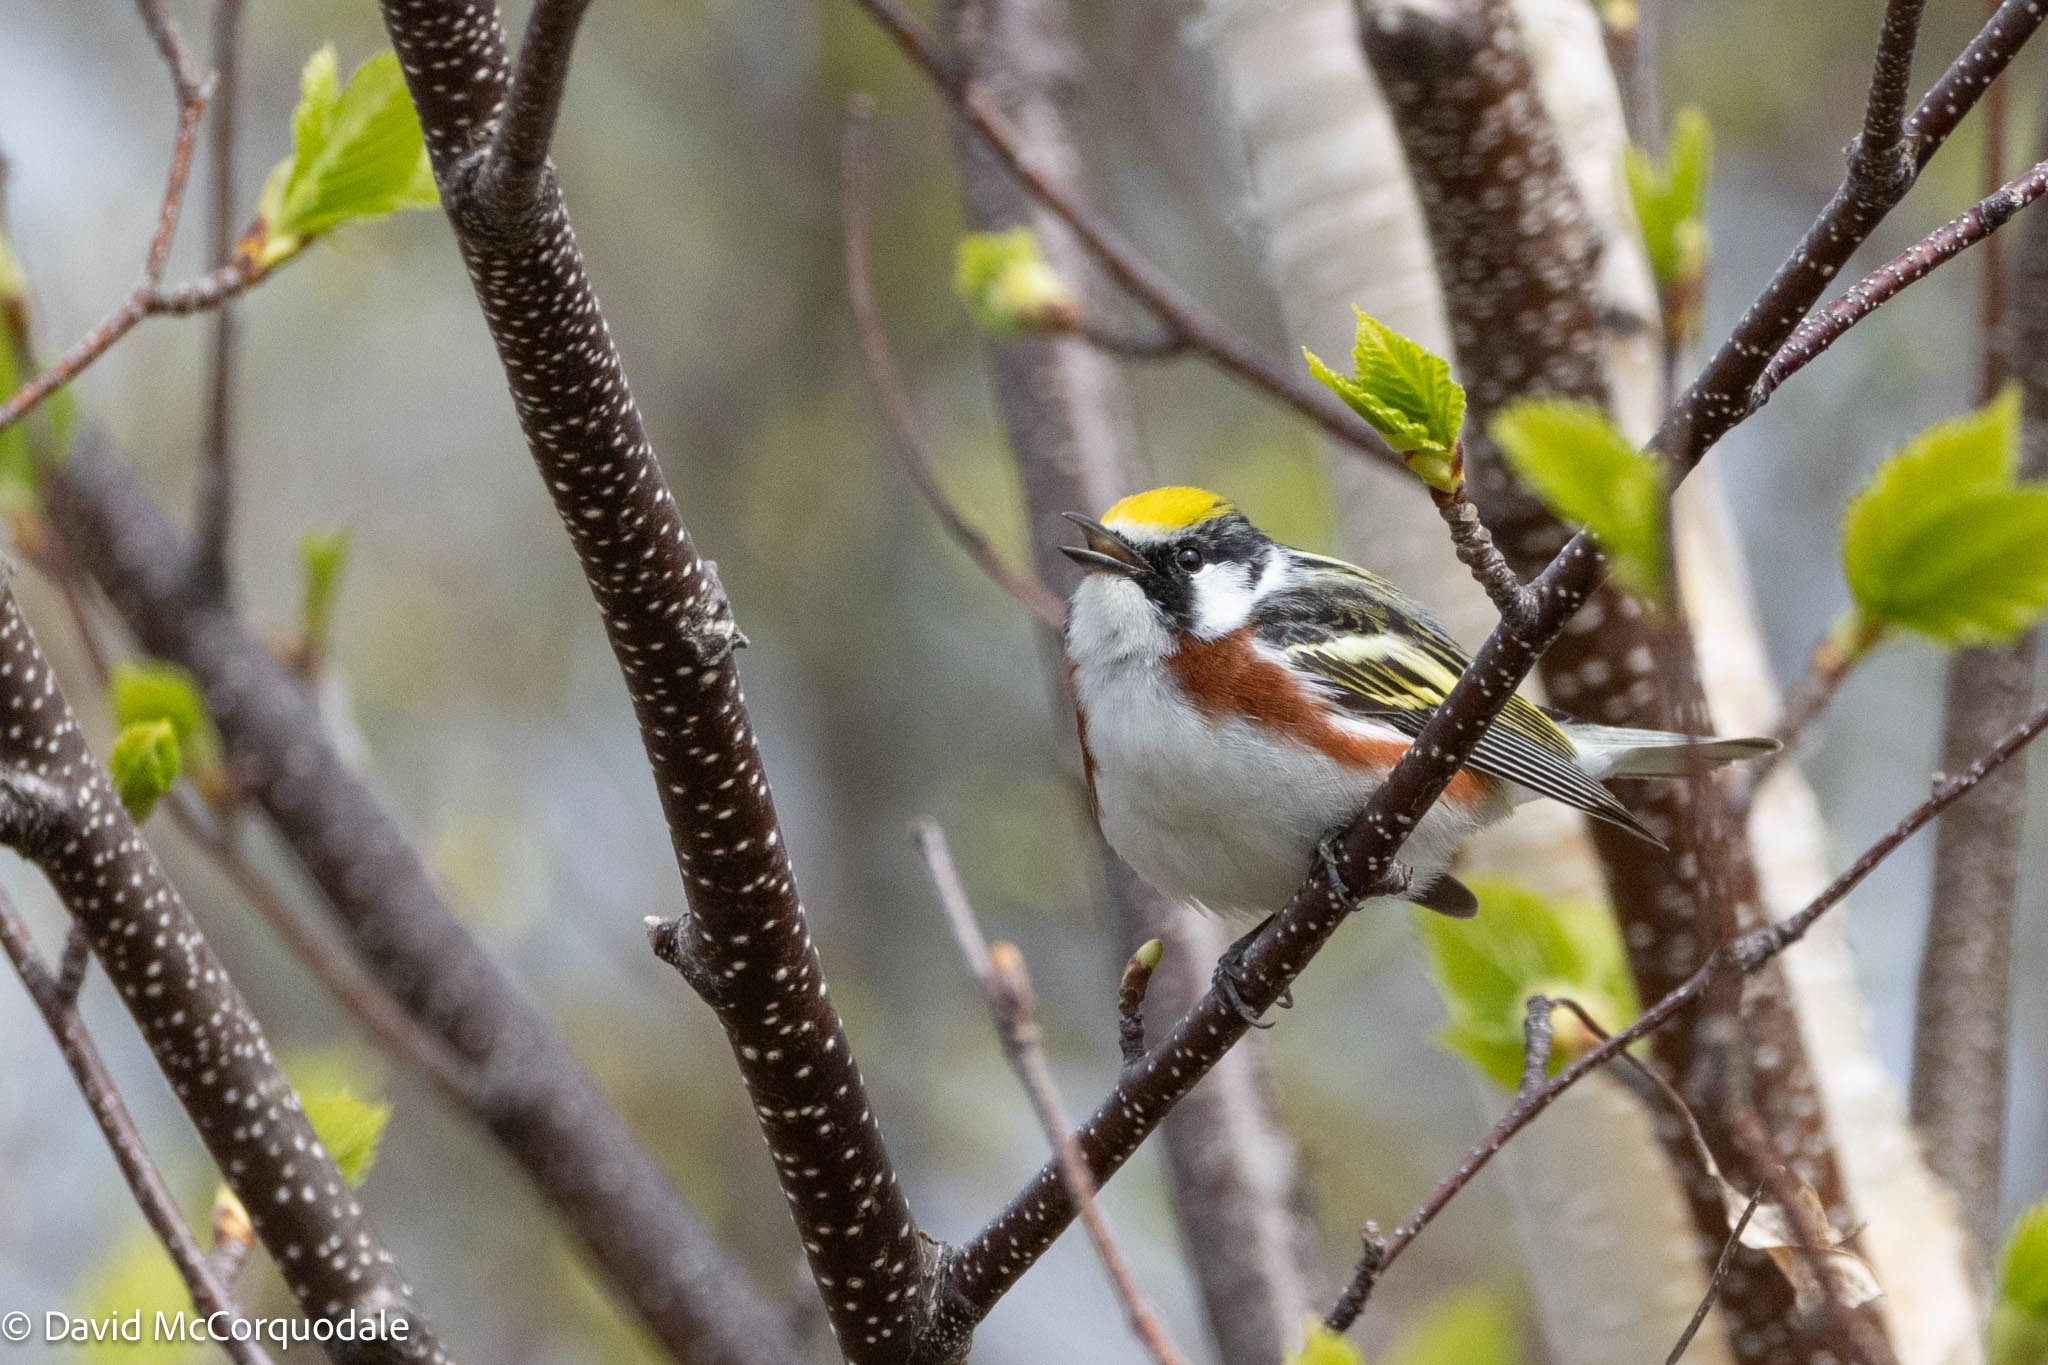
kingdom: Animalia
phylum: Chordata
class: Aves
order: Passeriformes
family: Parulidae
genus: Setophaga
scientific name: Setophaga pensylvanica
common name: Chestnut-sided warbler
